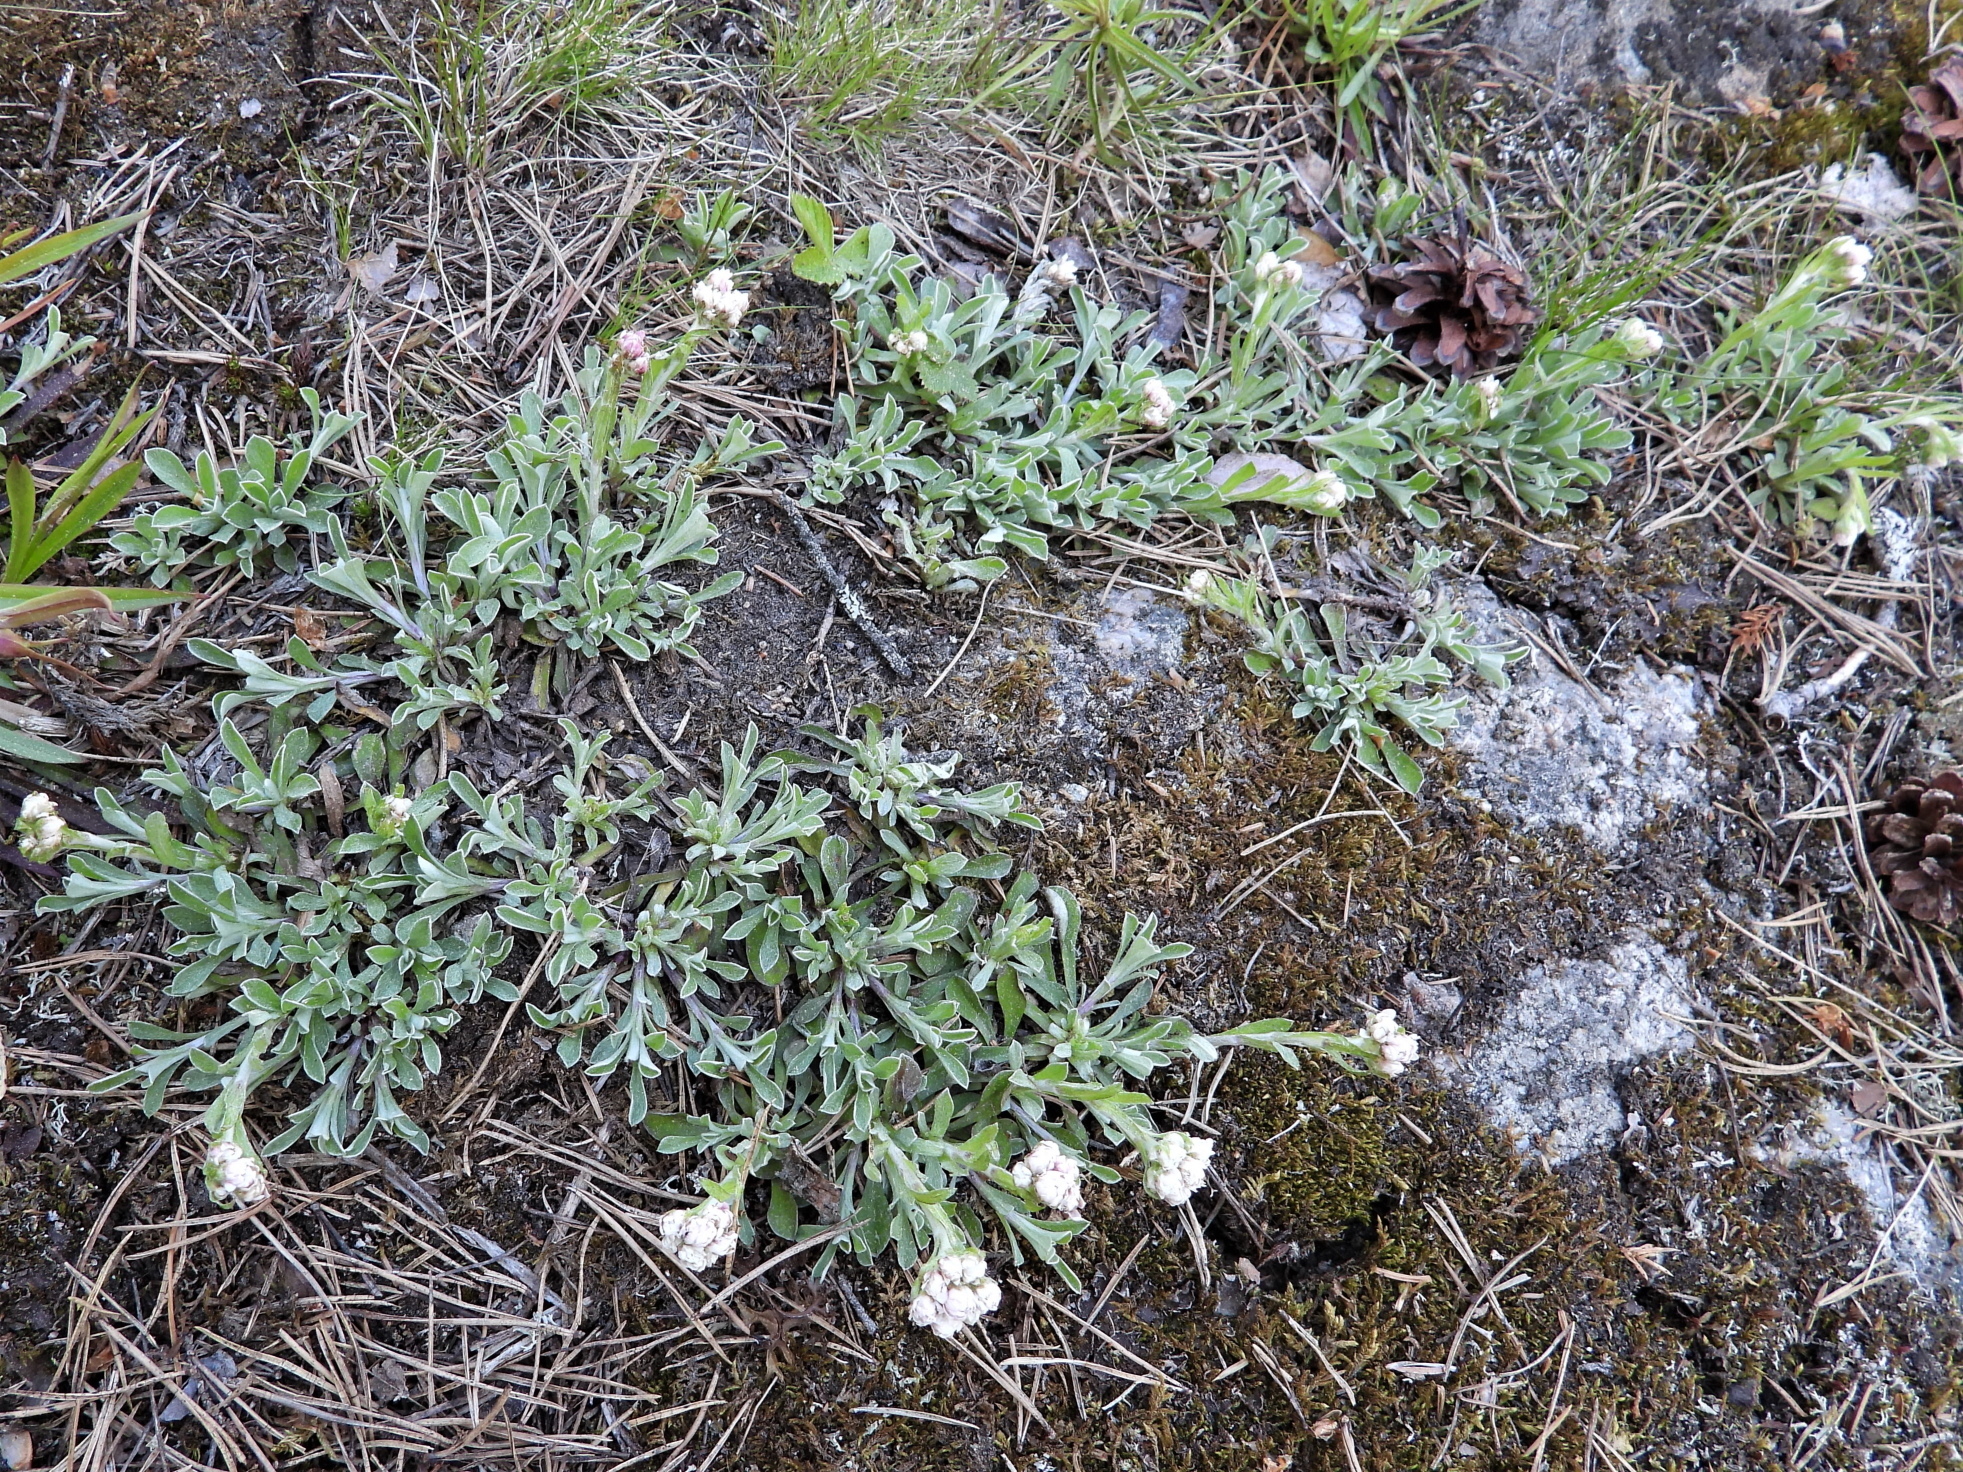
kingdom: Plantae
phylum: Tracheophyta
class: Magnoliopsida
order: Asterales
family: Asteraceae
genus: Antennaria
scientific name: Antennaria dioica
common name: Mountain everlasting
